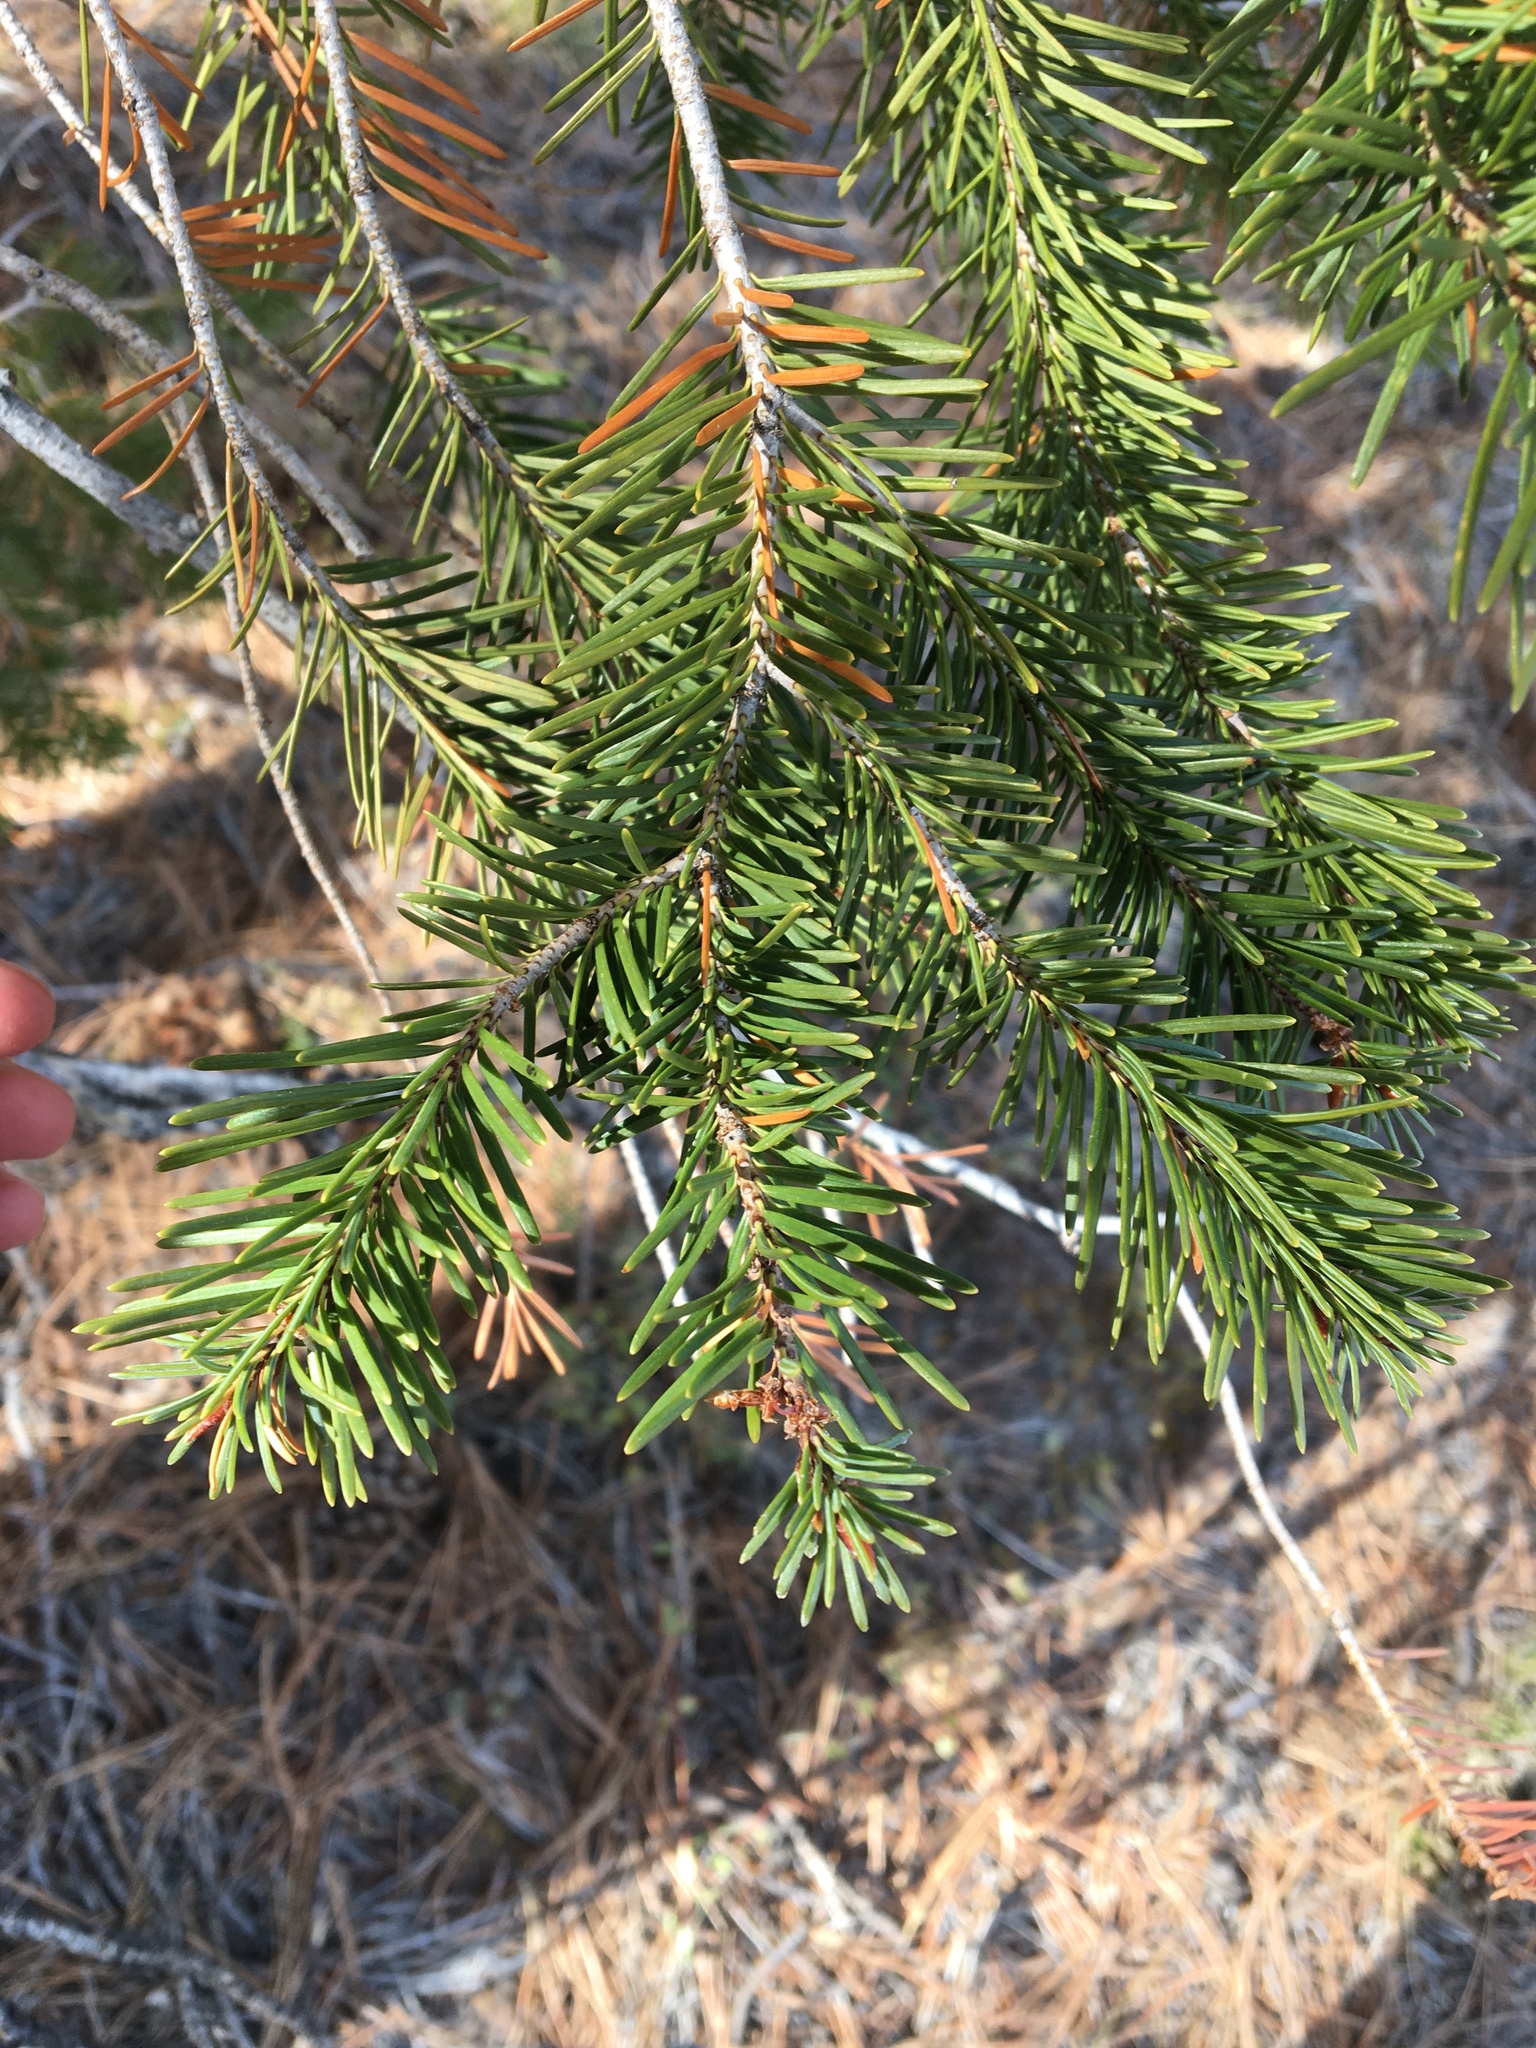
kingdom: Plantae
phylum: Tracheophyta
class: Pinopsida
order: Pinales
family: Pinaceae
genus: Pseudotsuga
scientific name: Pseudotsuga menziesii
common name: Douglas fir
